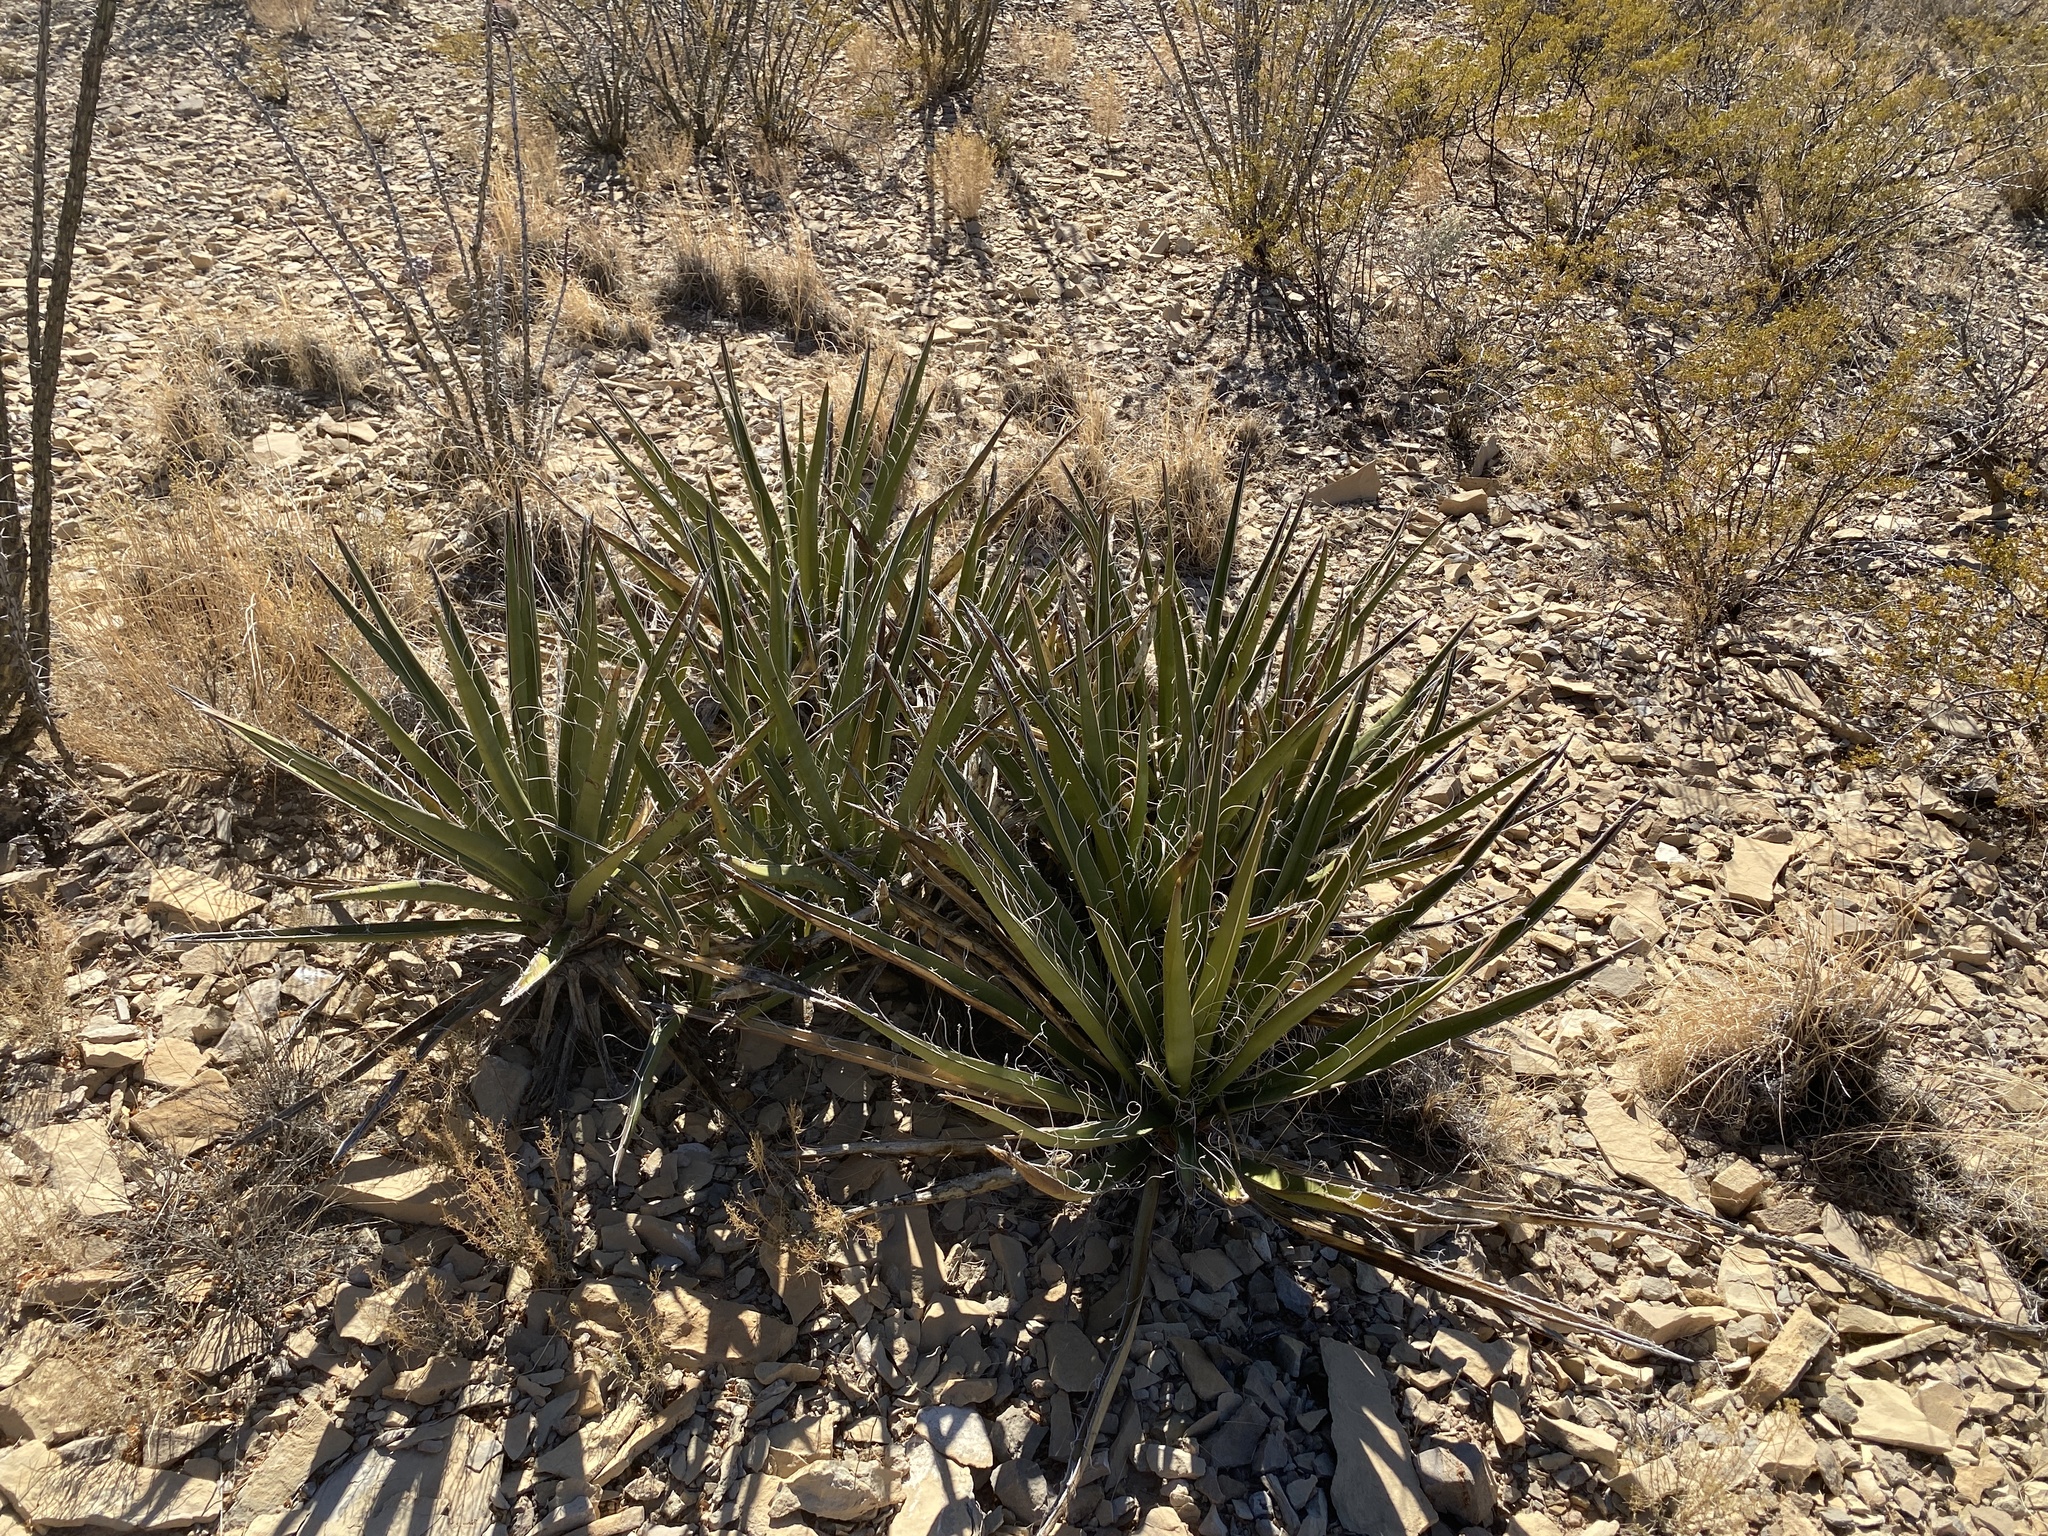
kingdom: Plantae
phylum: Tracheophyta
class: Liliopsida
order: Asparagales
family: Asparagaceae
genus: Yucca
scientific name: Yucca baccata
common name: Banana yucca
